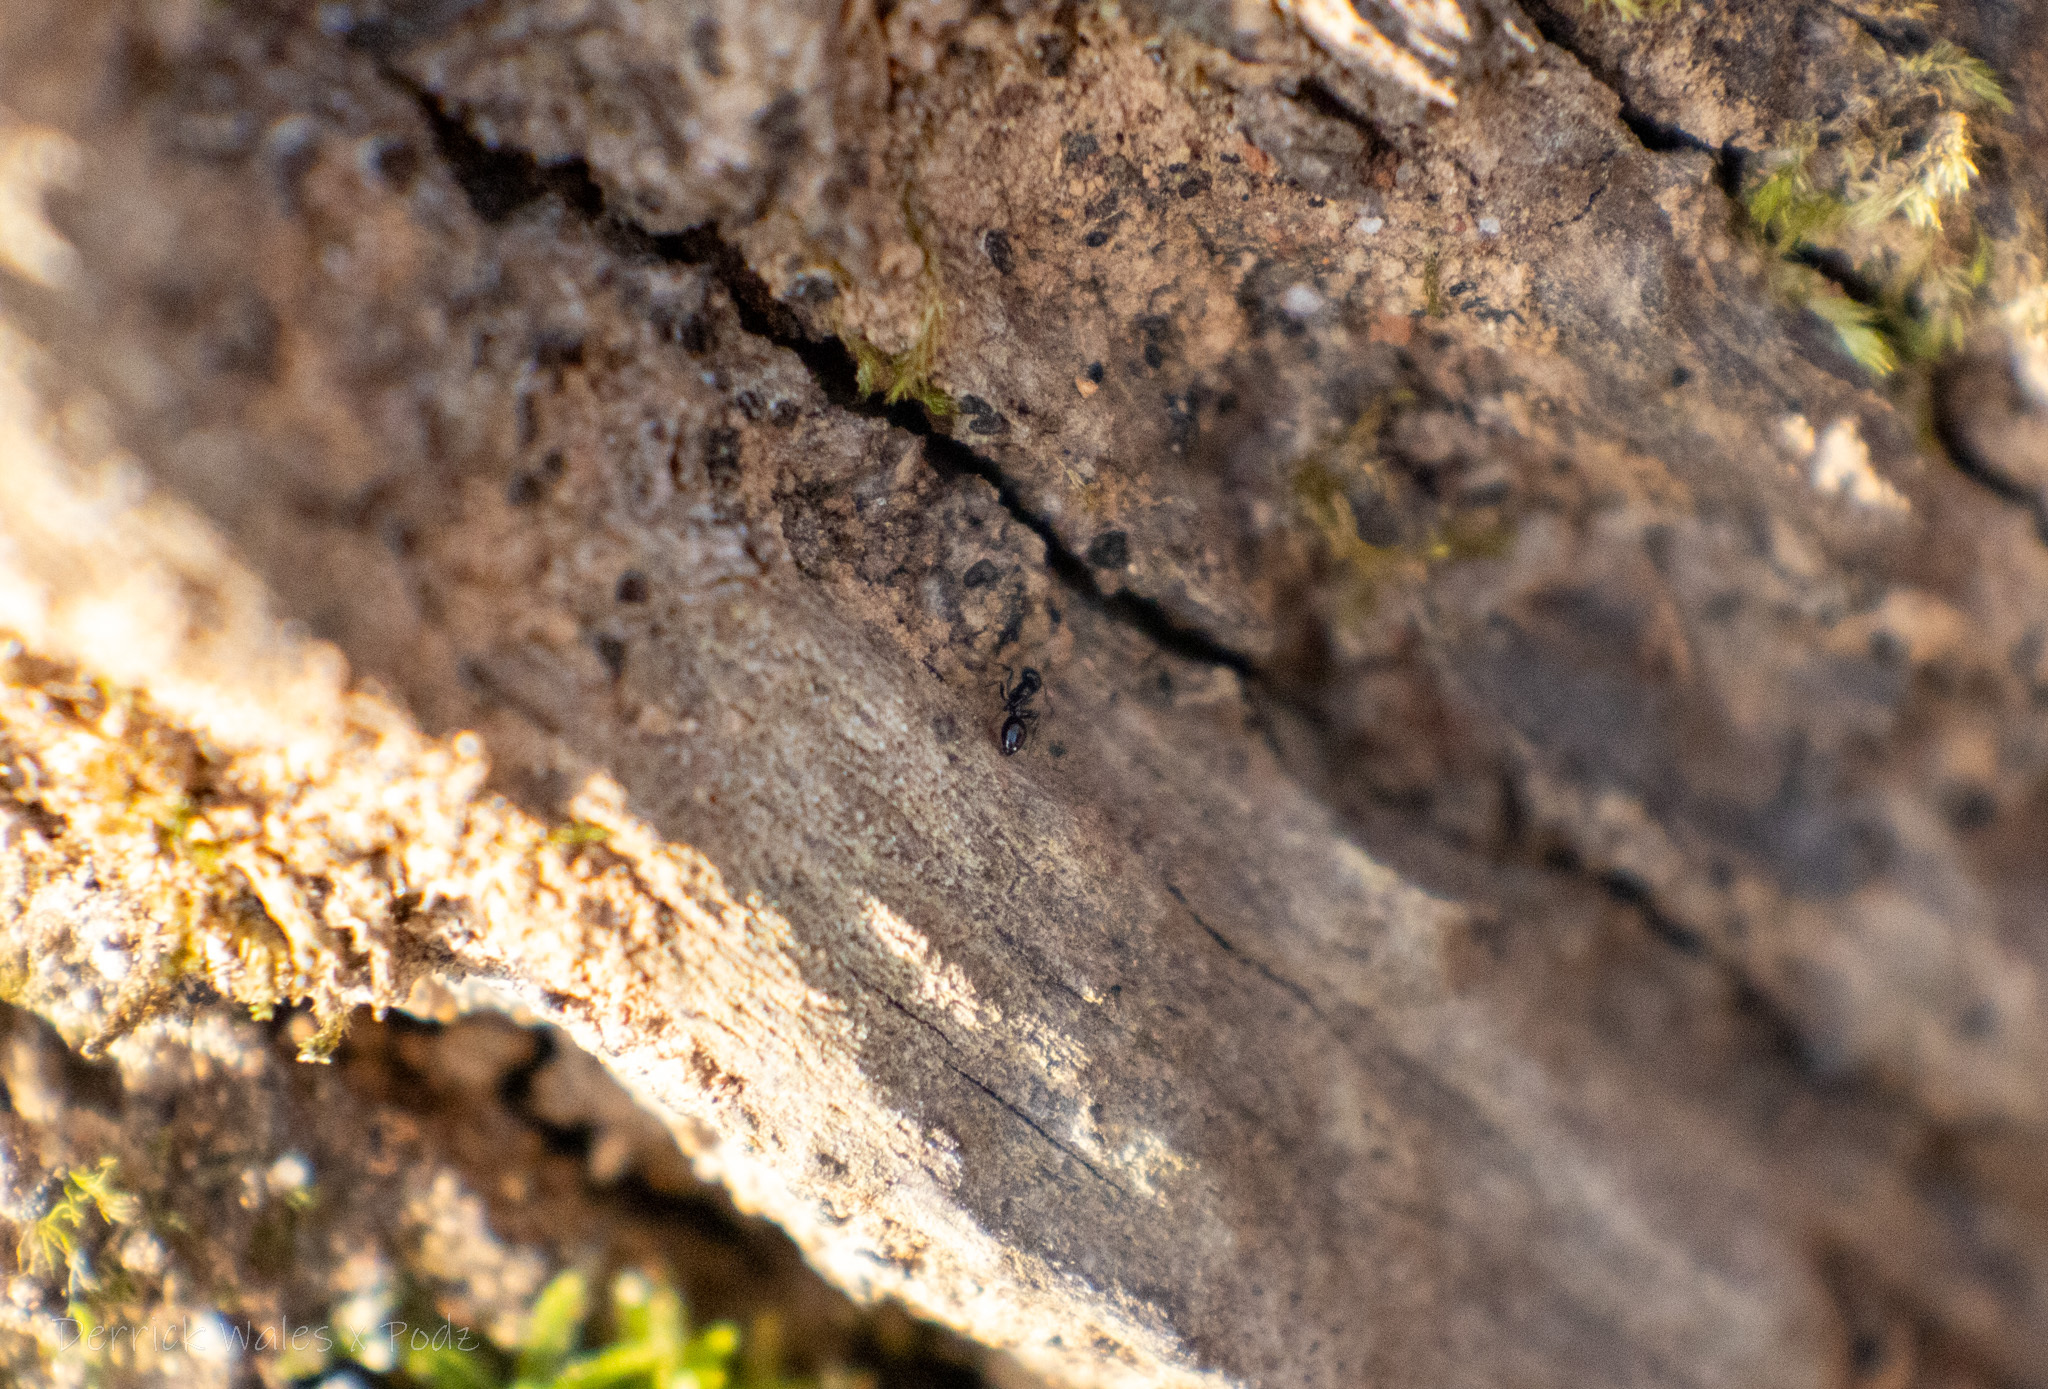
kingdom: Animalia
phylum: Arthropoda
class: Insecta
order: Hymenoptera
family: Formicidae
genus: Monomorium
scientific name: Monomorium minimum
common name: Little black ant
